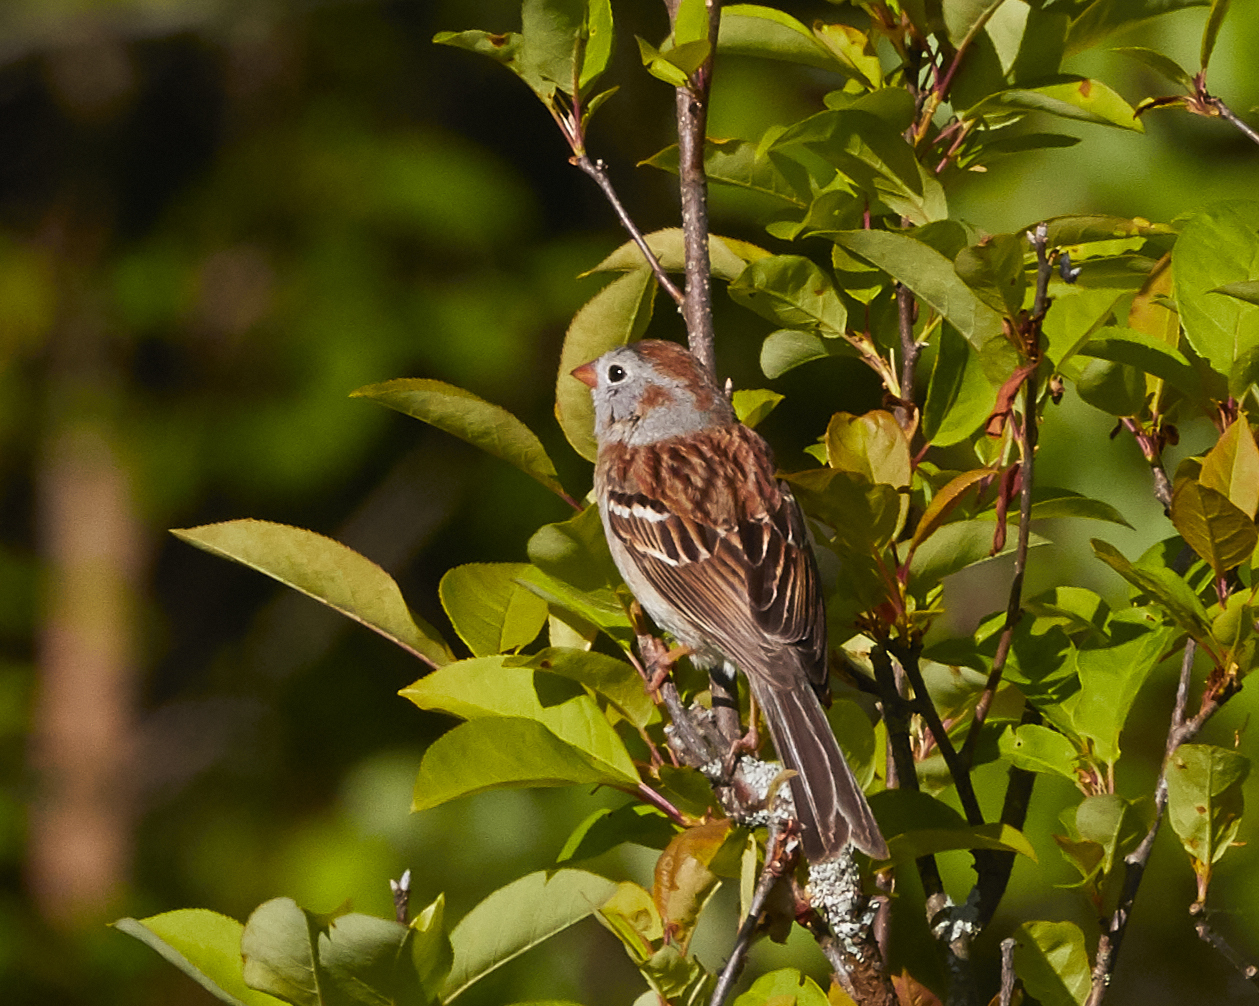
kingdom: Animalia
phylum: Chordata
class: Aves
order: Passeriformes
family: Passerellidae
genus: Spizella
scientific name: Spizella pusilla
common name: Field sparrow
